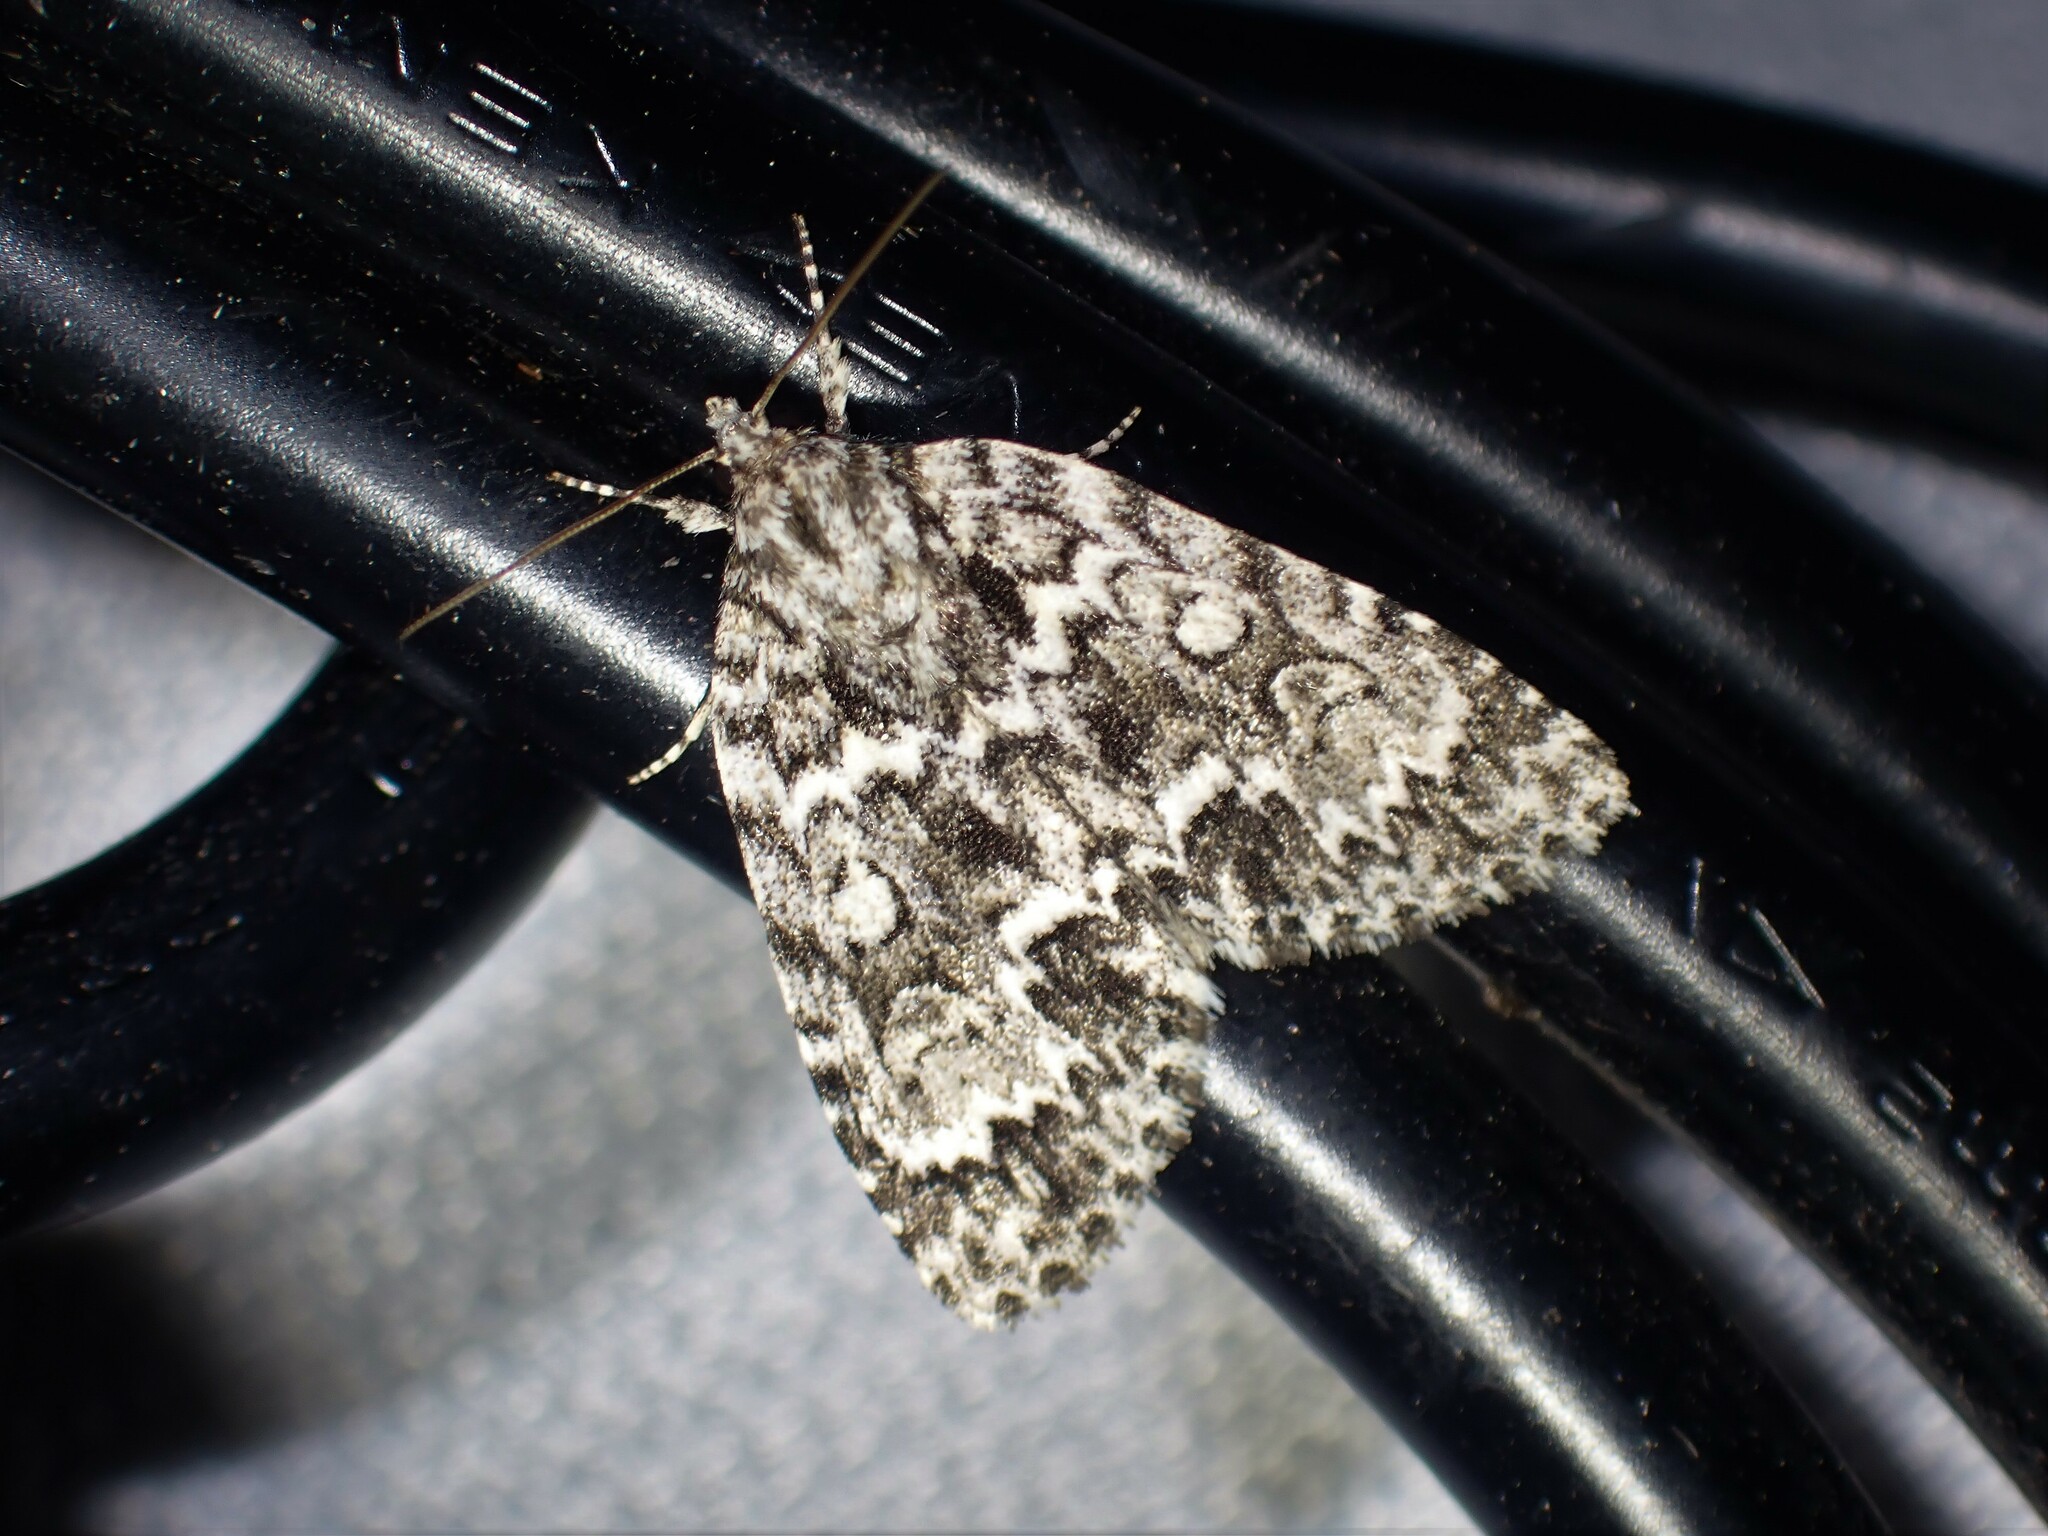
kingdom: Animalia
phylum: Arthropoda
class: Insecta
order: Lepidoptera
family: Noctuidae
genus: Acronicta
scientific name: Acronicta fragilis
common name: Fragile dagger
